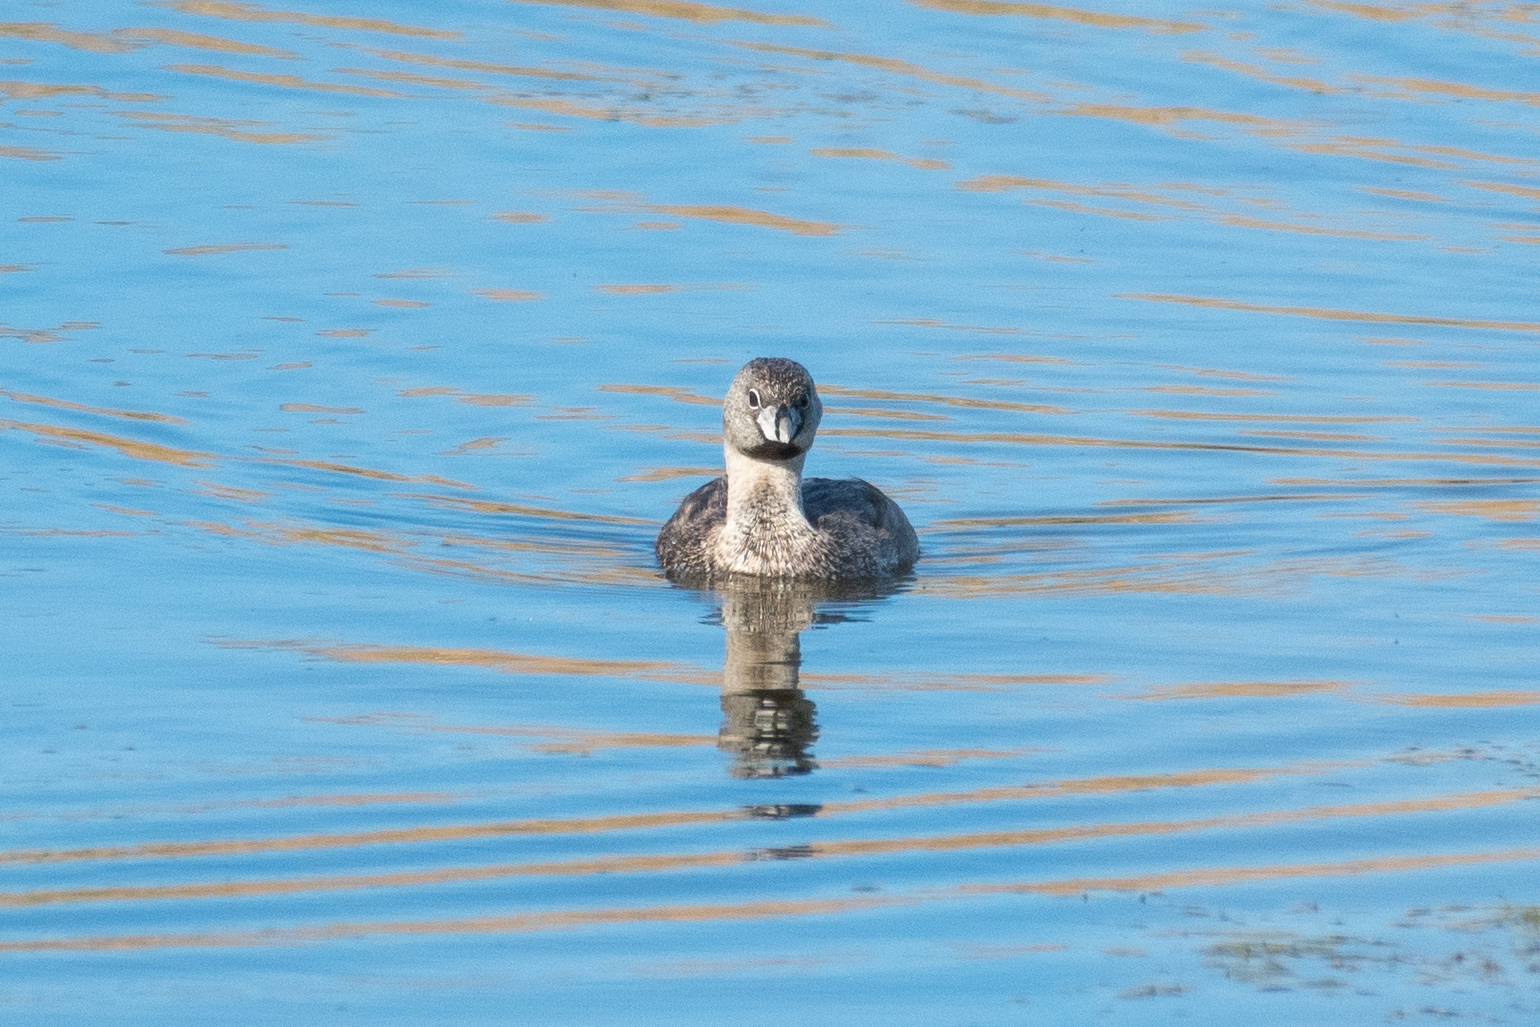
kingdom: Animalia
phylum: Chordata
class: Aves
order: Podicipediformes
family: Podicipedidae
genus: Podilymbus
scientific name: Podilymbus podiceps
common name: Pied-billed grebe
